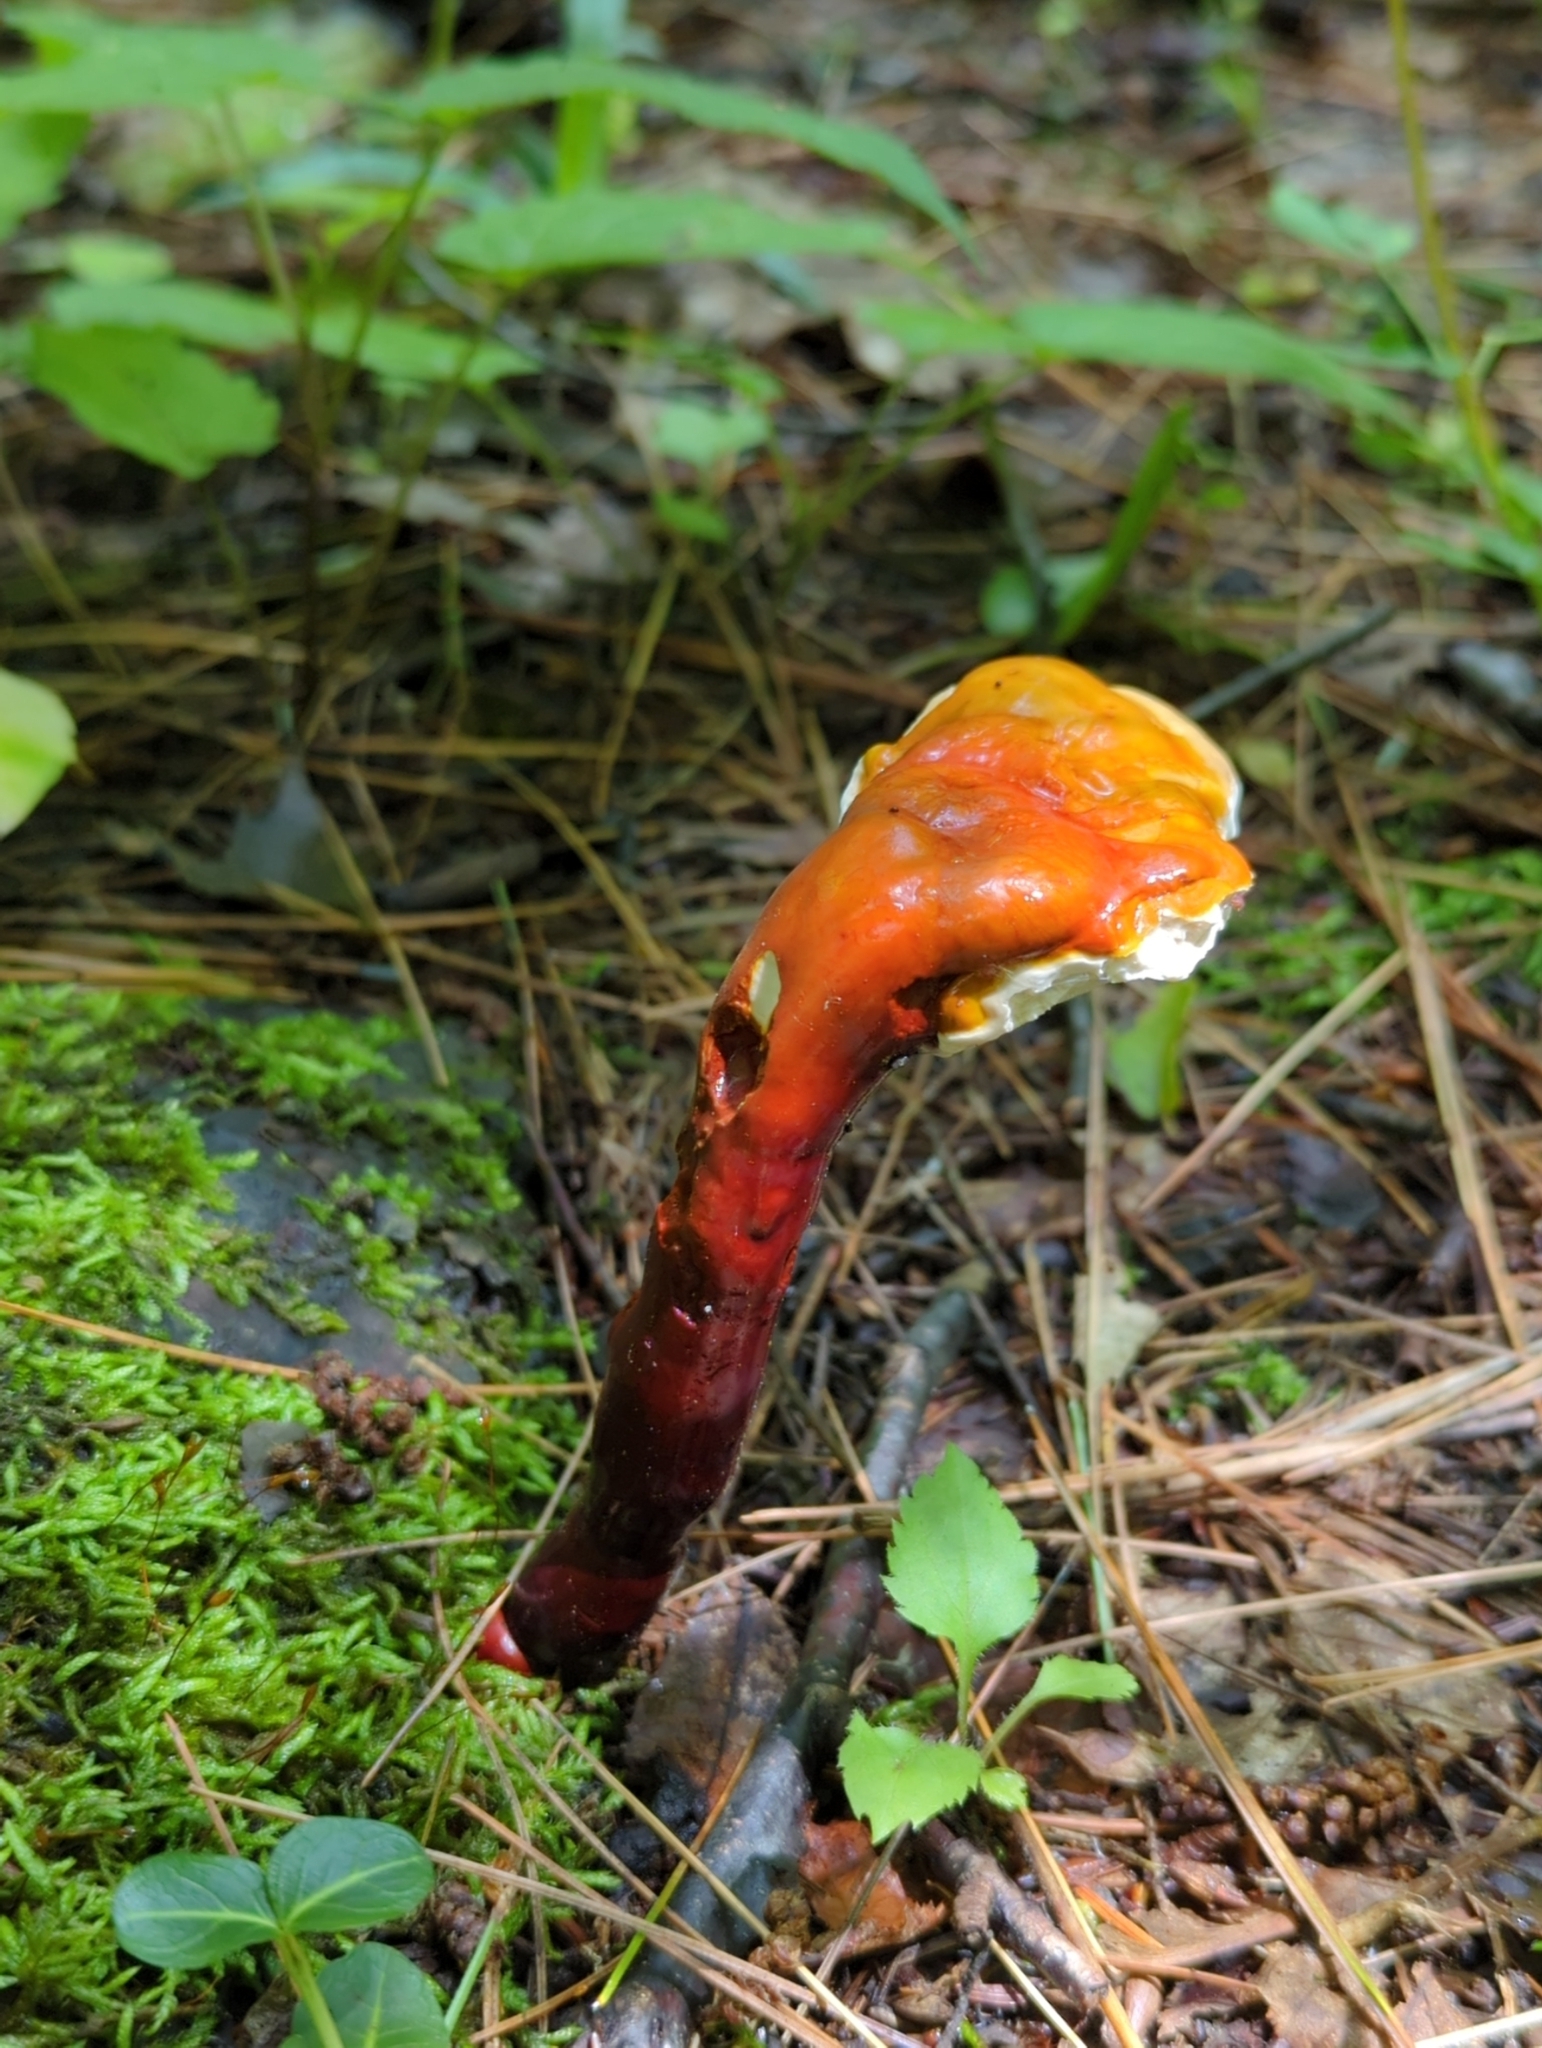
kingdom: Fungi
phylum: Basidiomycota
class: Agaricomycetes
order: Polyporales
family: Polyporaceae
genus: Ganoderma
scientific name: Ganoderma tsugae
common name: Hemlock varnish shelf
